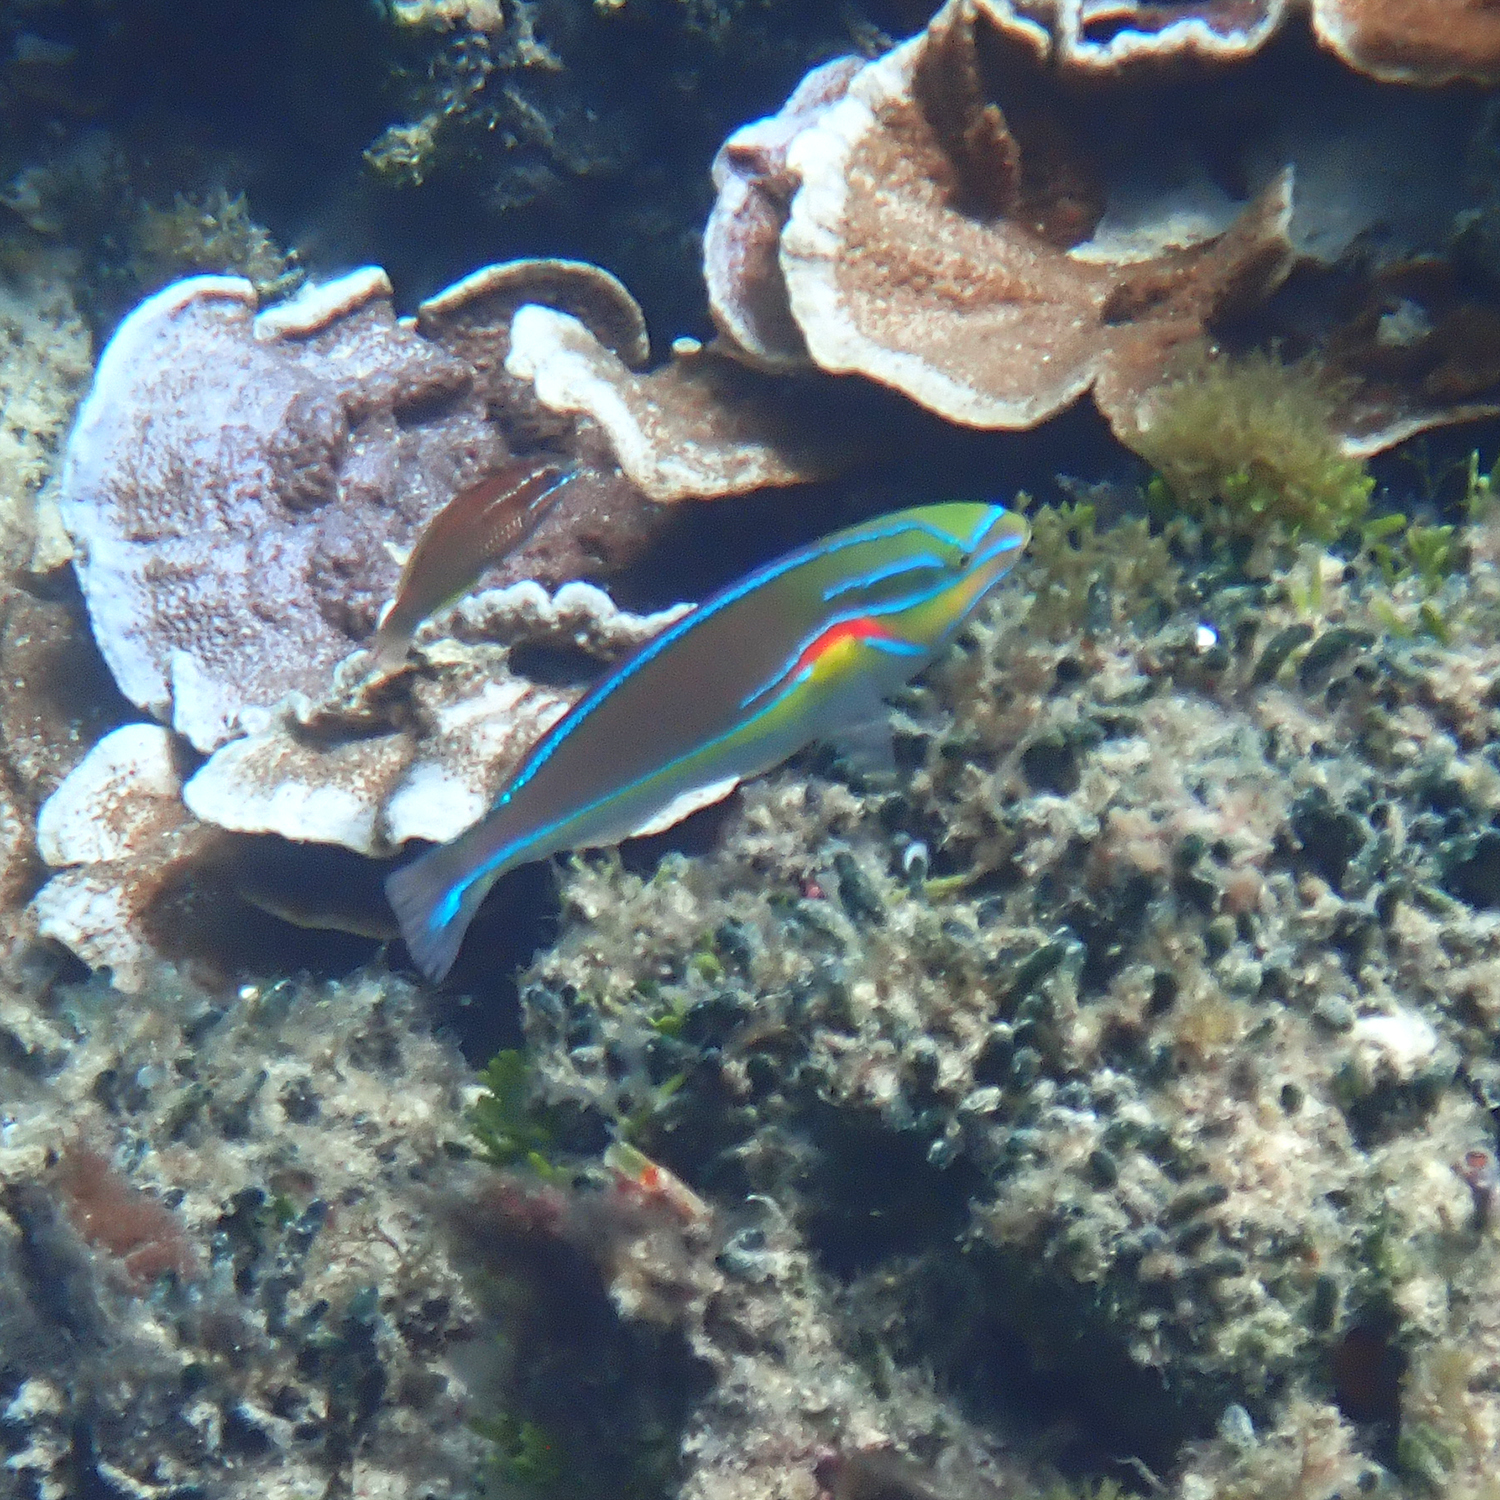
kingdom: Animalia
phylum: Chordata
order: Perciformes
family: Labridae
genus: Stethojulis
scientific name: Stethojulis bandanensis
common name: Red shoulder wrasse
